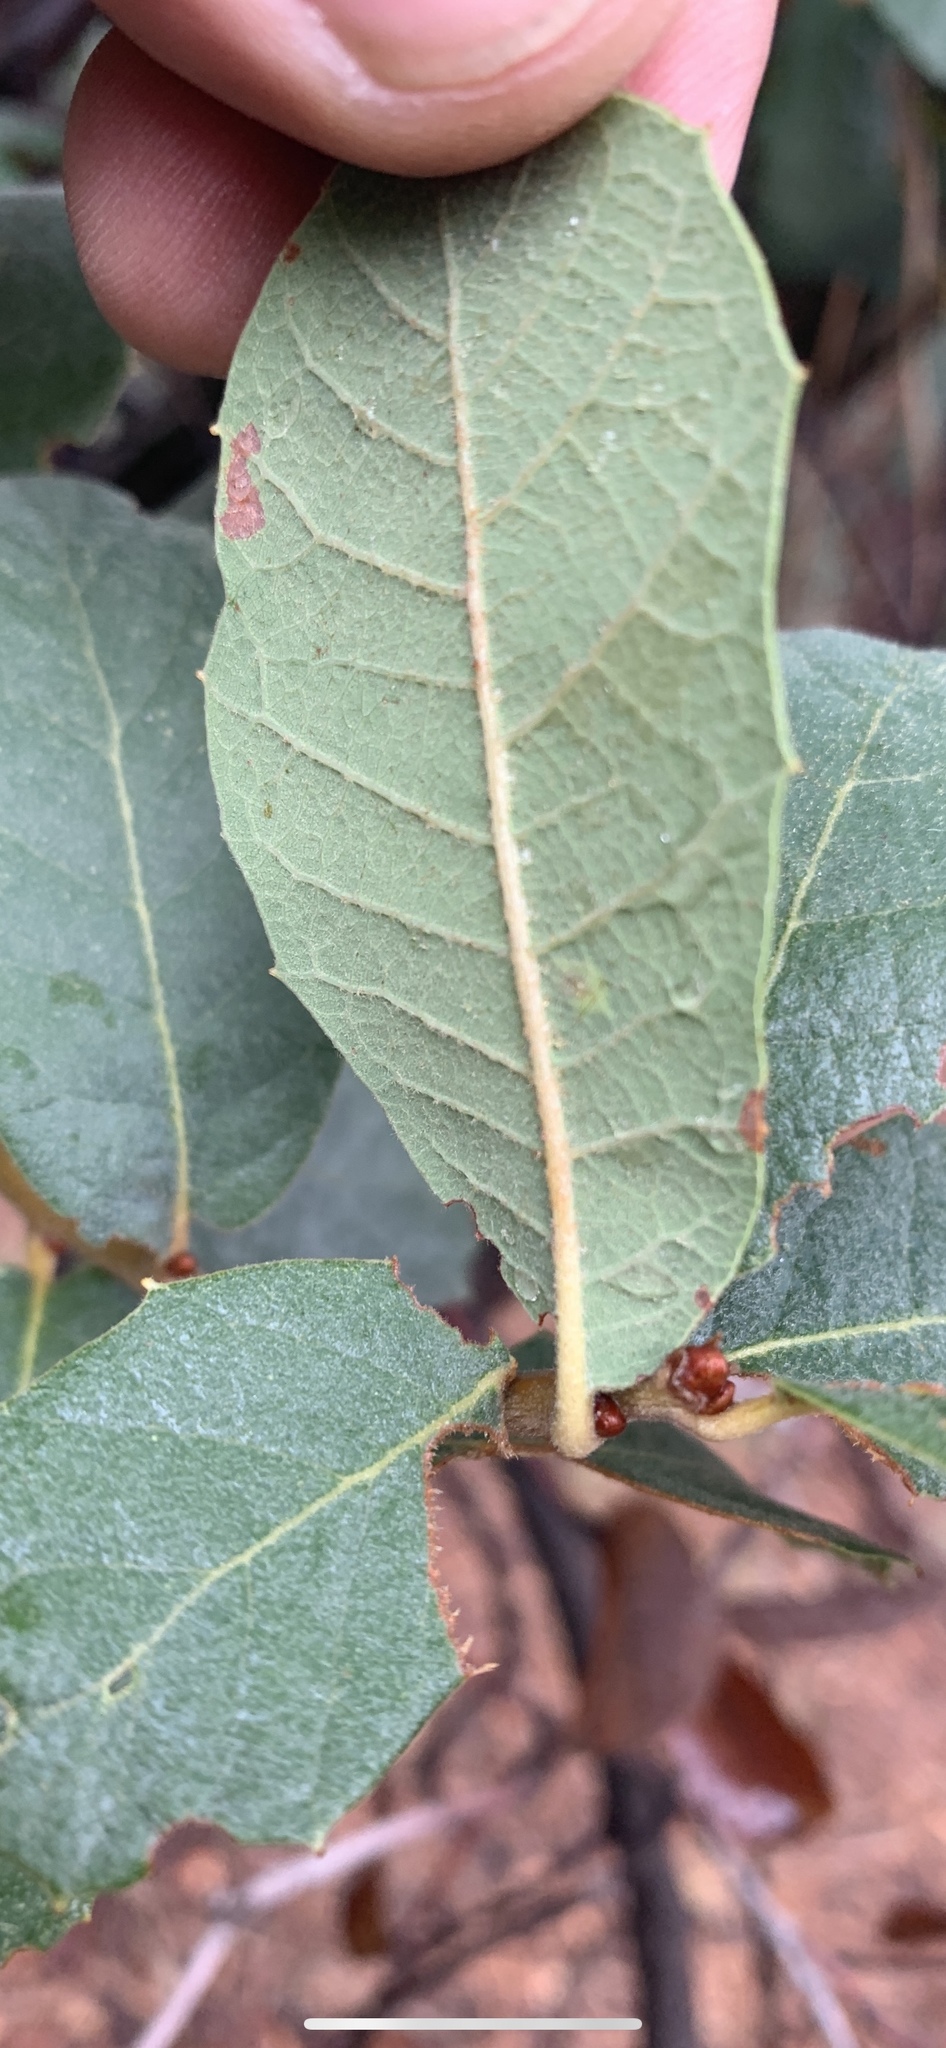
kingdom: Plantae
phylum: Tracheophyta
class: Magnoliopsida
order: Fagales
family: Fagaceae
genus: Quercus
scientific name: Quercus arizonica
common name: Arizona white oak
